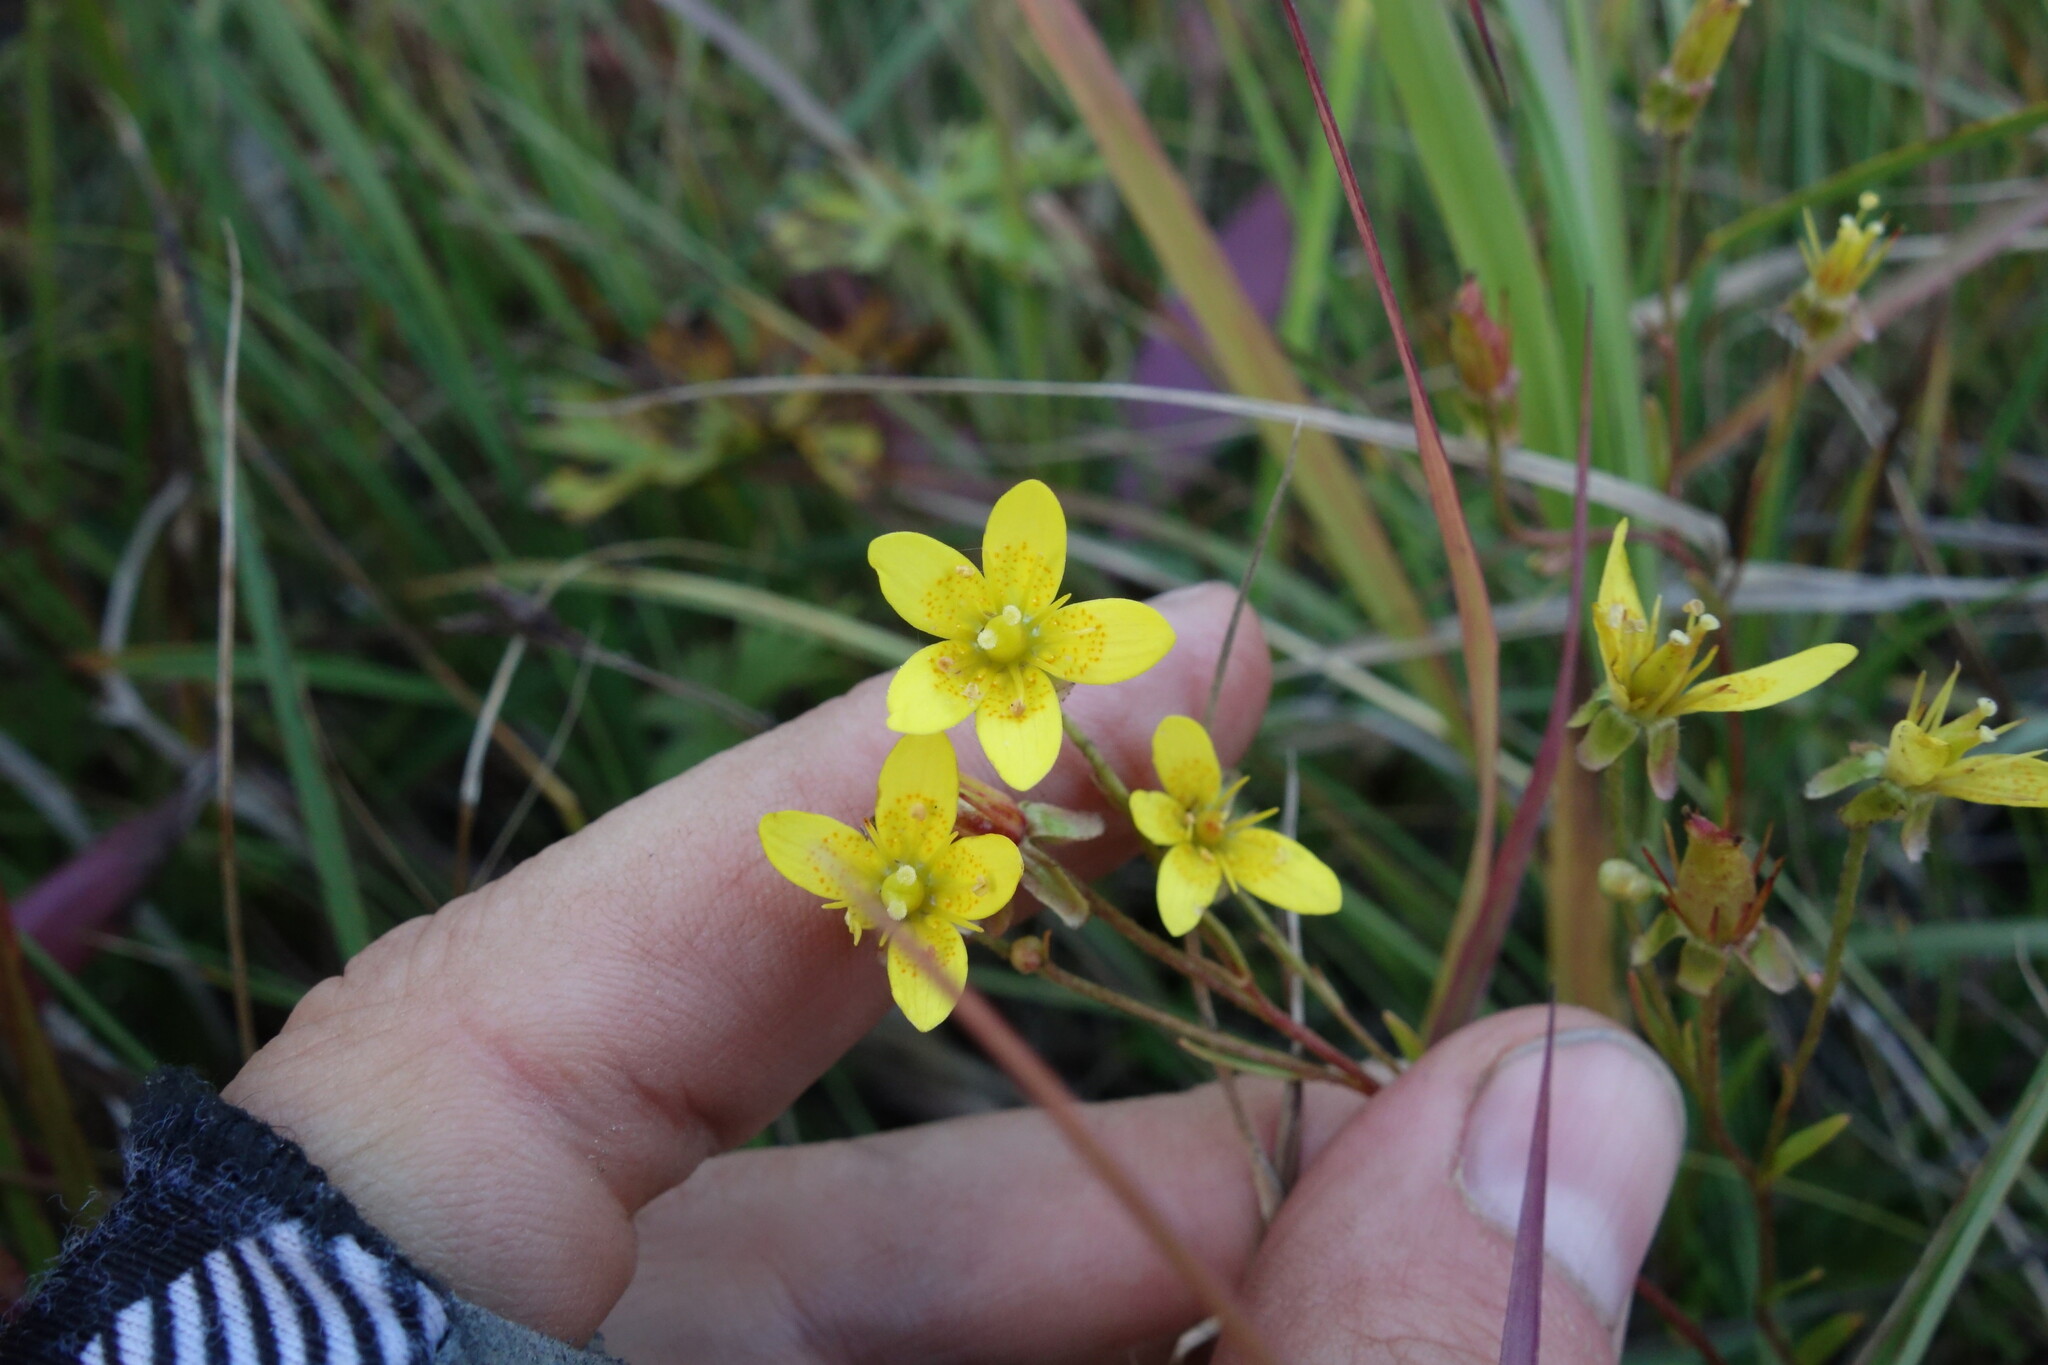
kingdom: Plantae
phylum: Tracheophyta
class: Magnoliopsida
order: Saxifragales
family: Saxifragaceae
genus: Saxifraga
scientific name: Saxifraga hirculus
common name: Yellow marsh saxifrage
